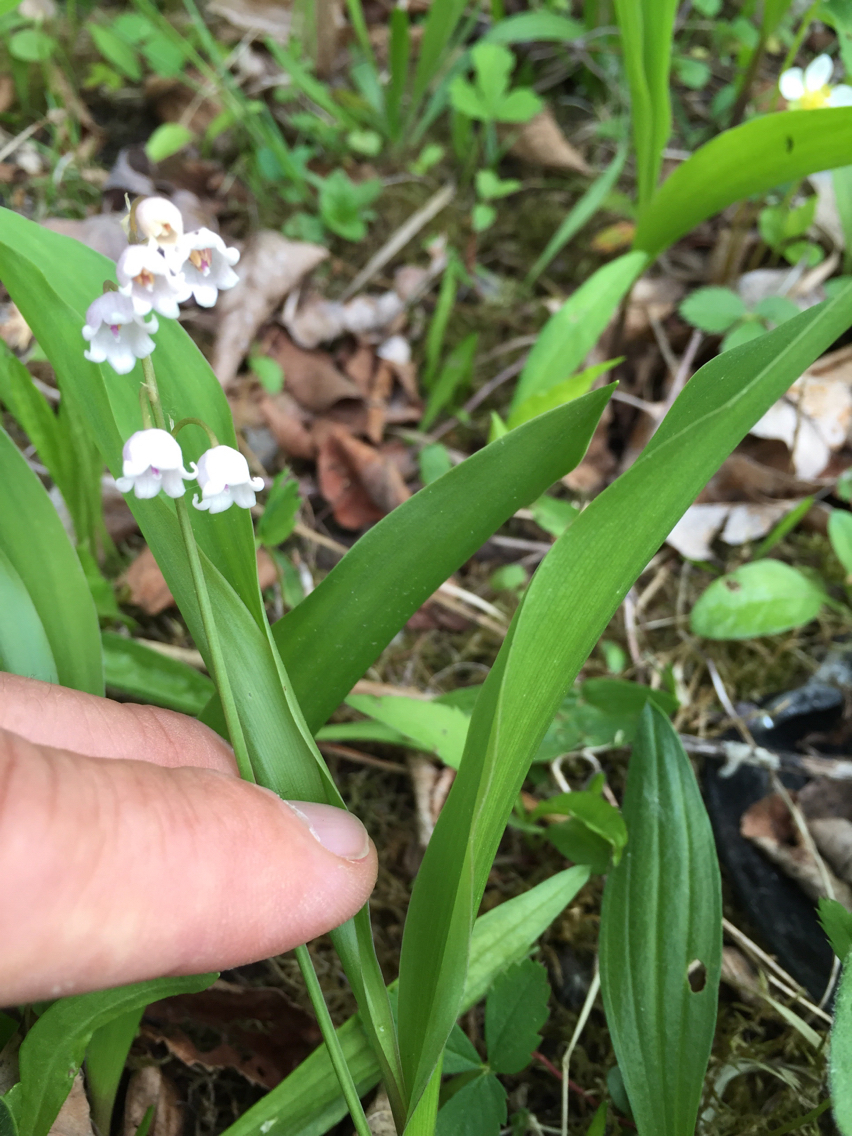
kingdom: Plantae
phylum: Tracheophyta
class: Liliopsida
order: Asparagales
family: Asparagaceae
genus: Convallaria
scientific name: Convallaria majalis
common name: Lily-of-the-valley
